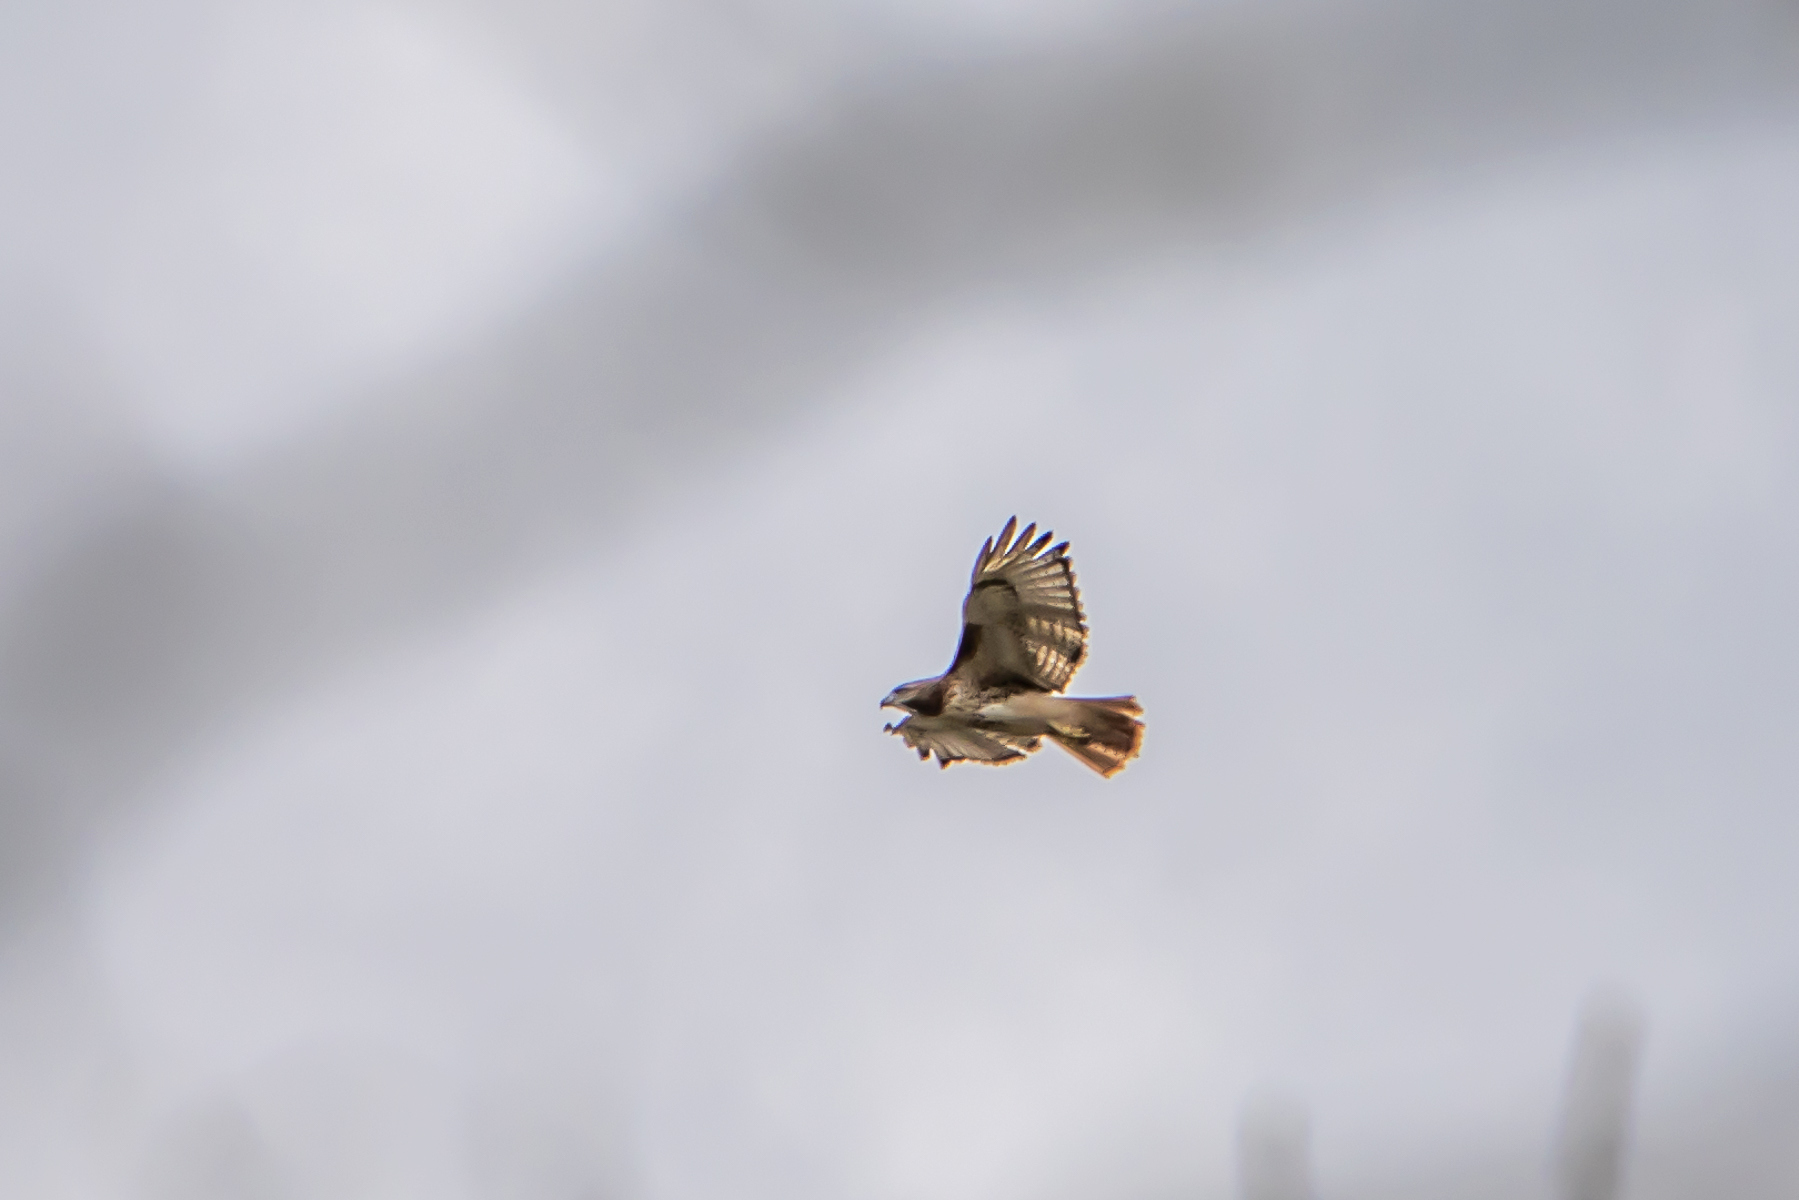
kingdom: Animalia
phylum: Chordata
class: Aves
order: Accipitriformes
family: Accipitridae
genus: Buteo
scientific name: Buteo jamaicensis
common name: Red-tailed hawk
